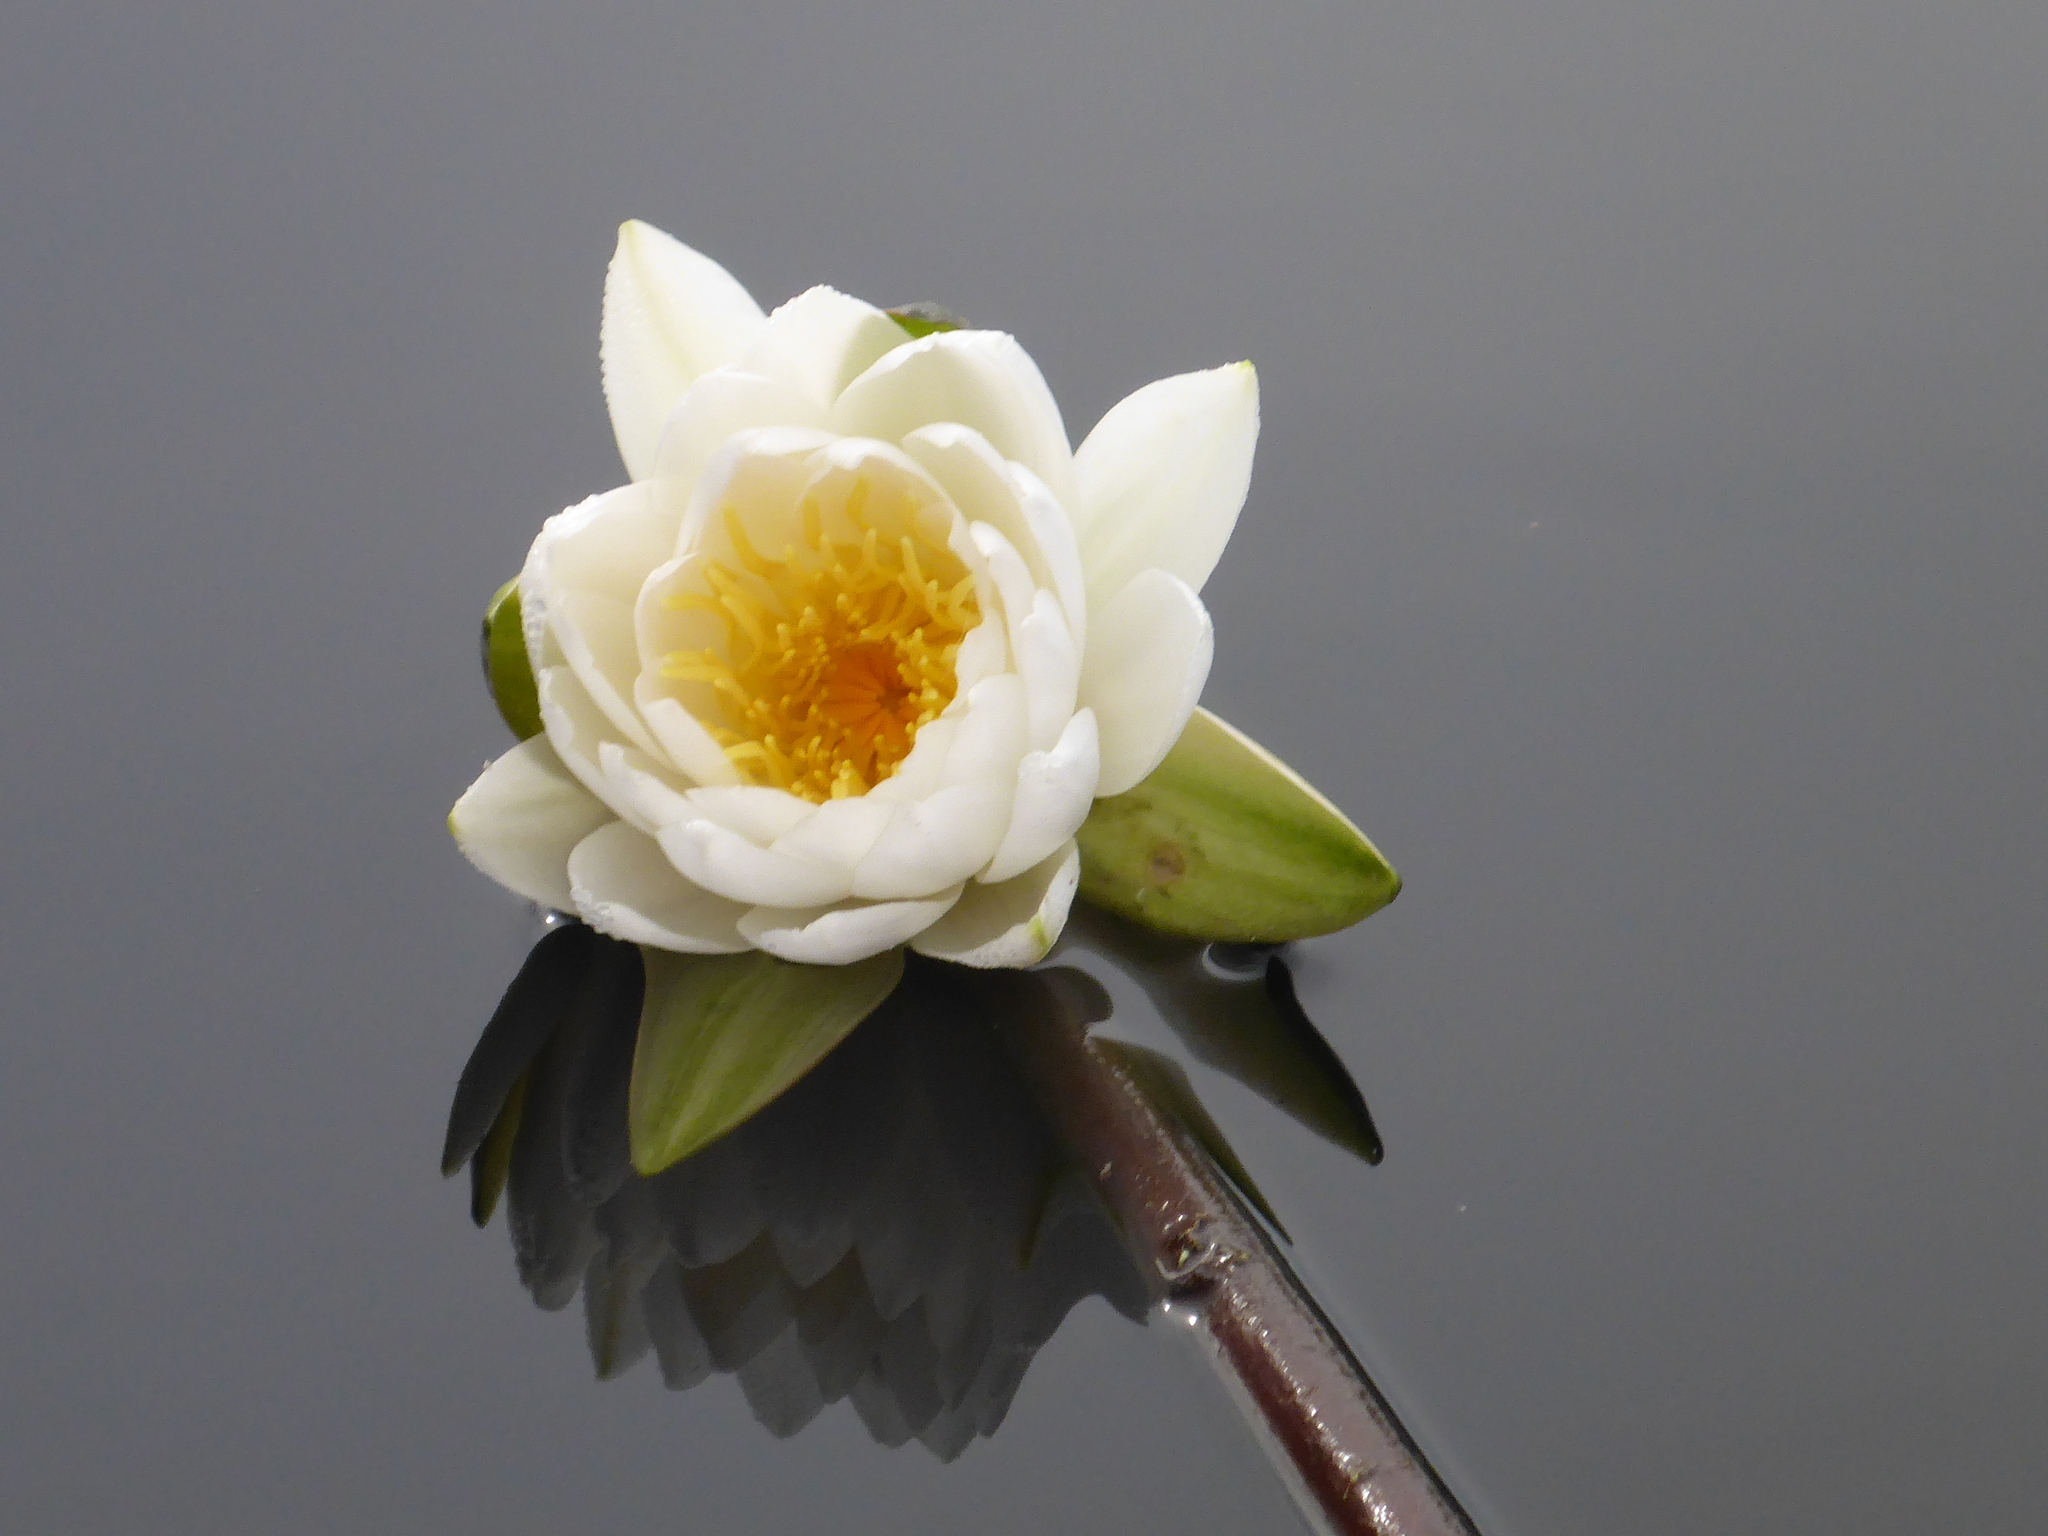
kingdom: Plantae
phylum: Tracheophyta
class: Magnoliopsida
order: Nymphaeales
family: Nymphaeaceae
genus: Nymphaea
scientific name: Nymphaea odorata
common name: Fragrant water-lily
